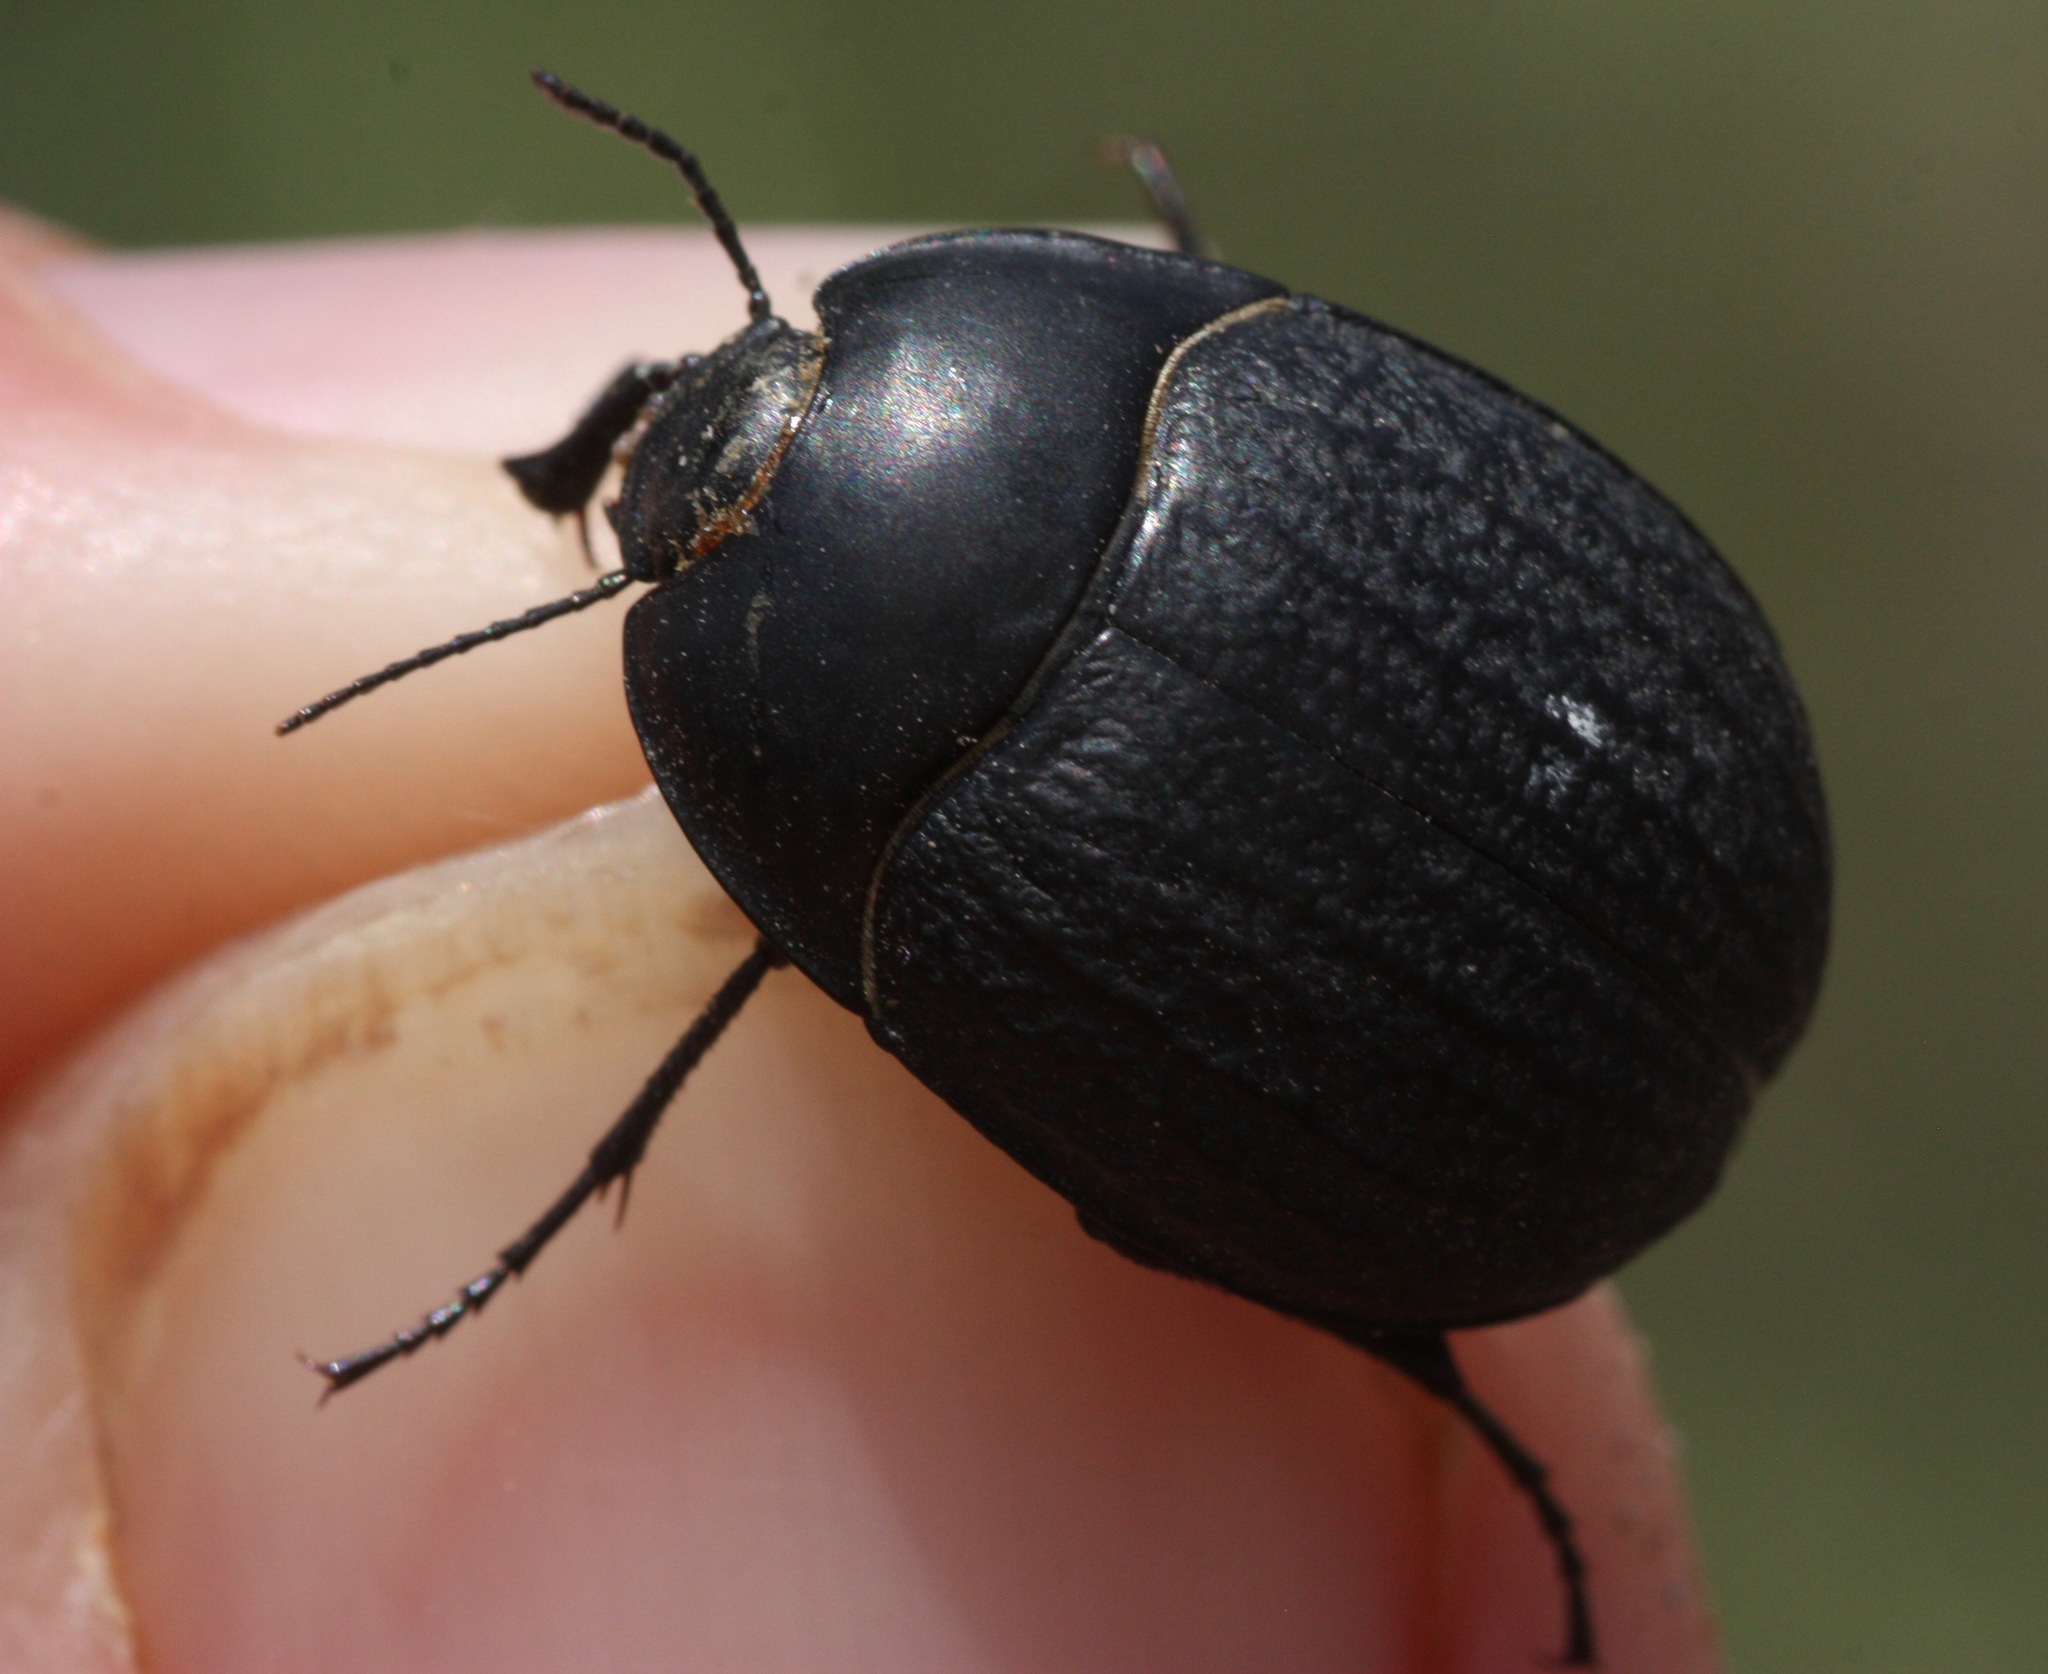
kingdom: Animalia
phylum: Arthropoda
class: Insecta
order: Coleoptera
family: Tenebrionidae
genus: Eusattus
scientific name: Eusattus reticulatus
